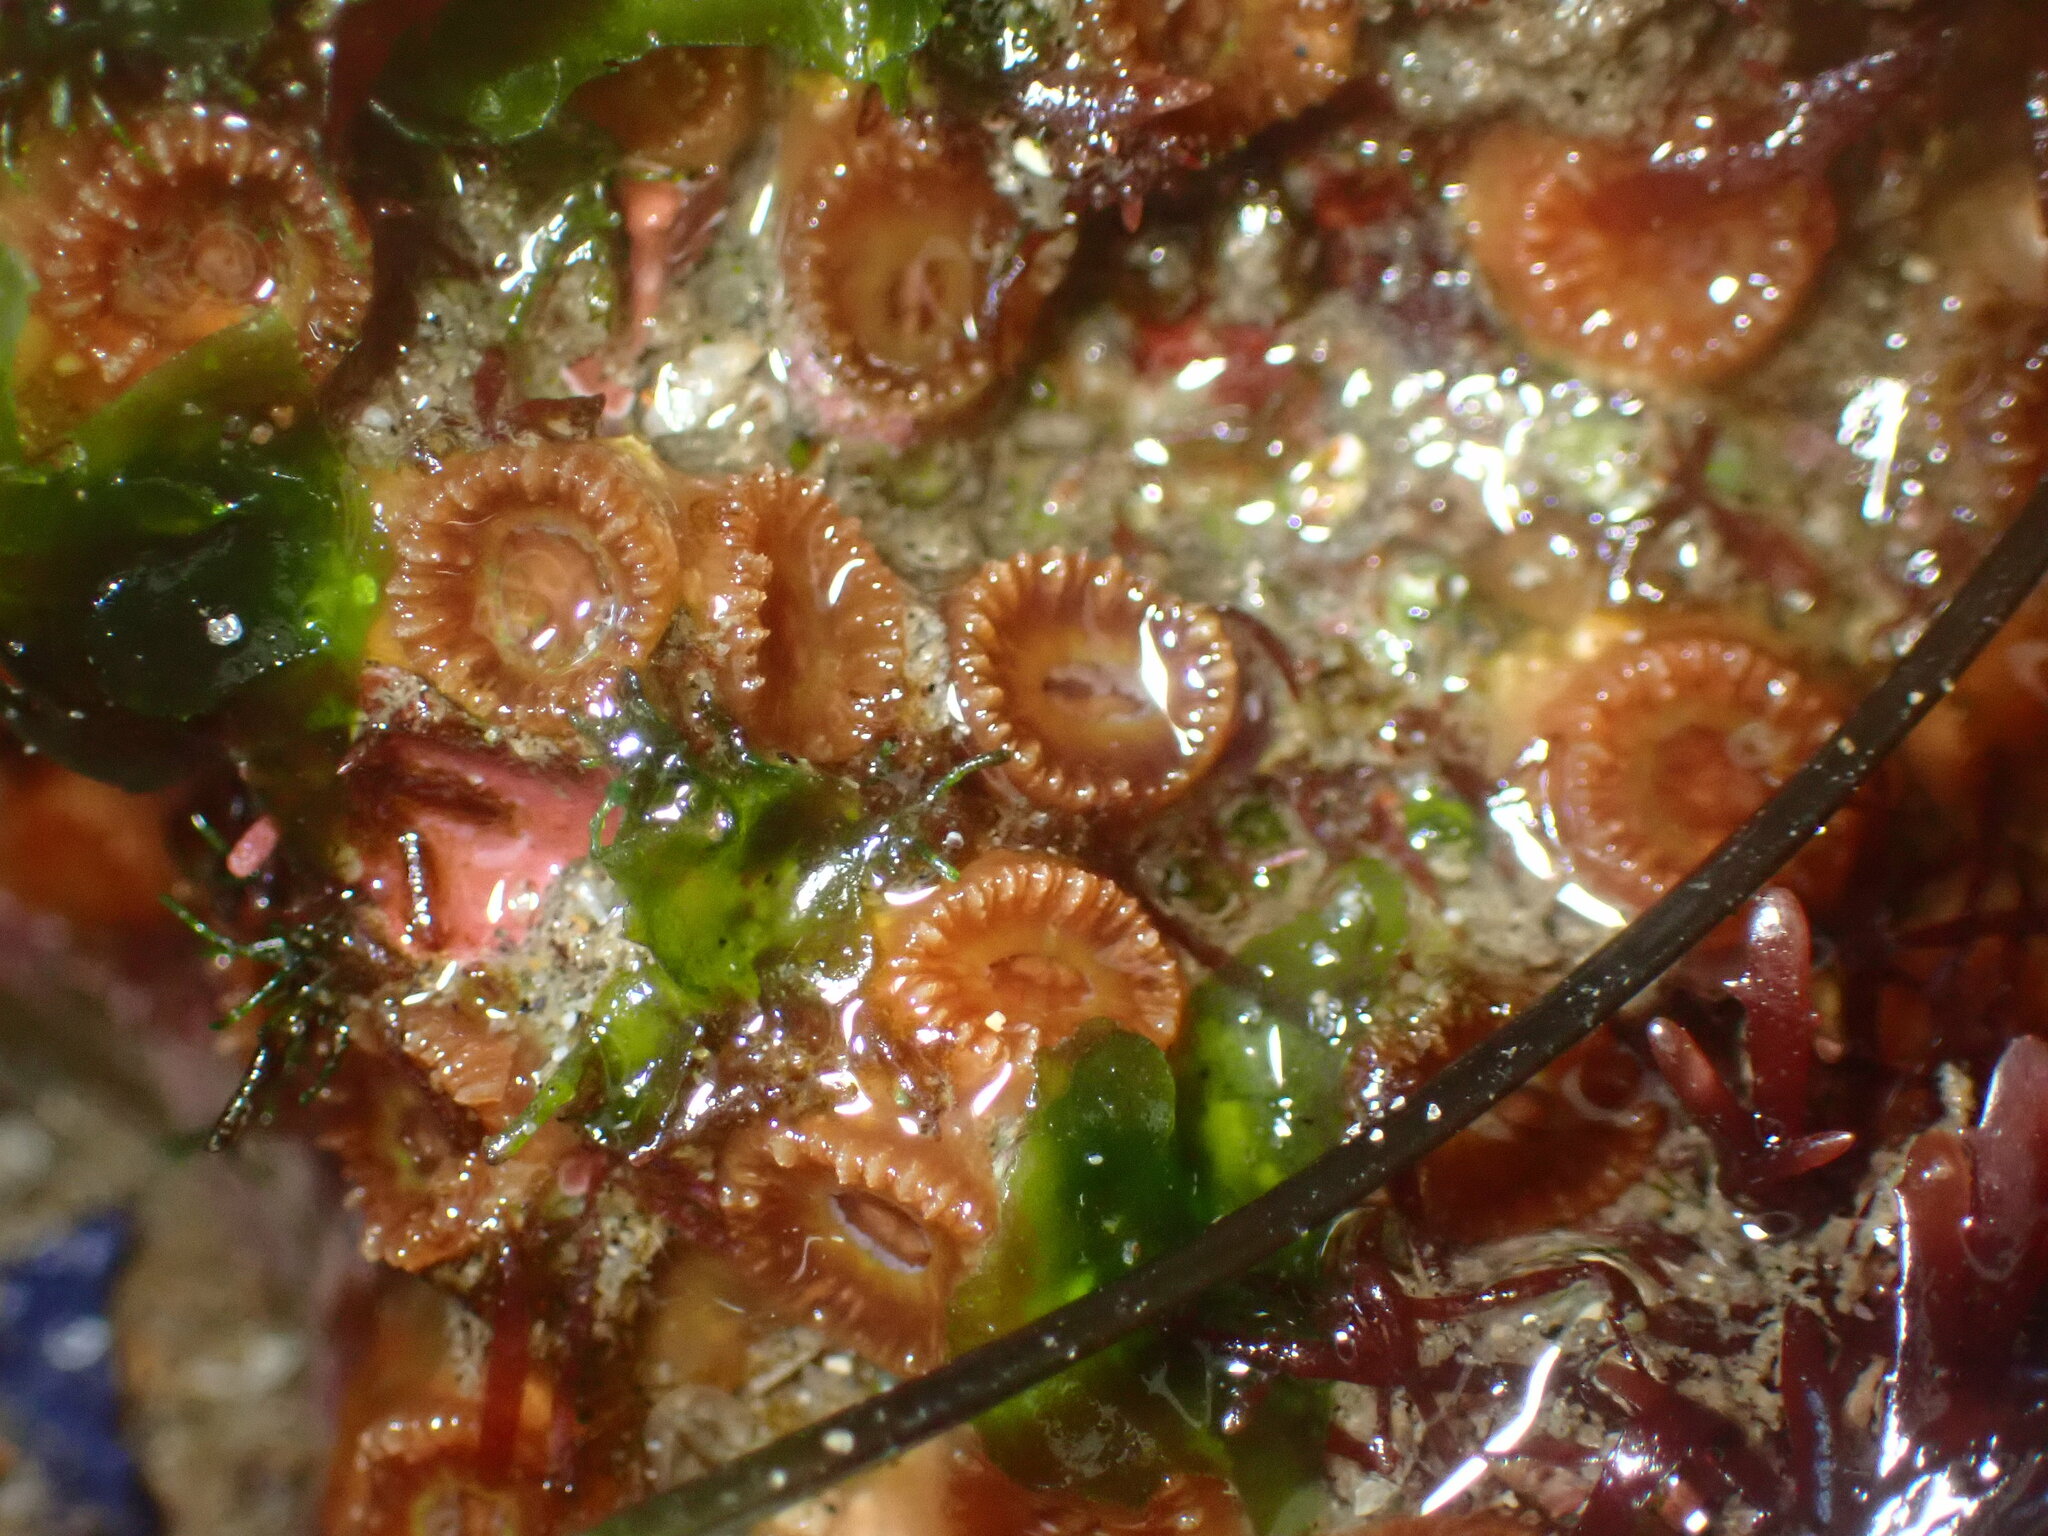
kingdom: Animalia
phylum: Cnidaria
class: Anthozoa
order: Scleractinia
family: Astrangiidae
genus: Astrangia
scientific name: Astrangia haimei
